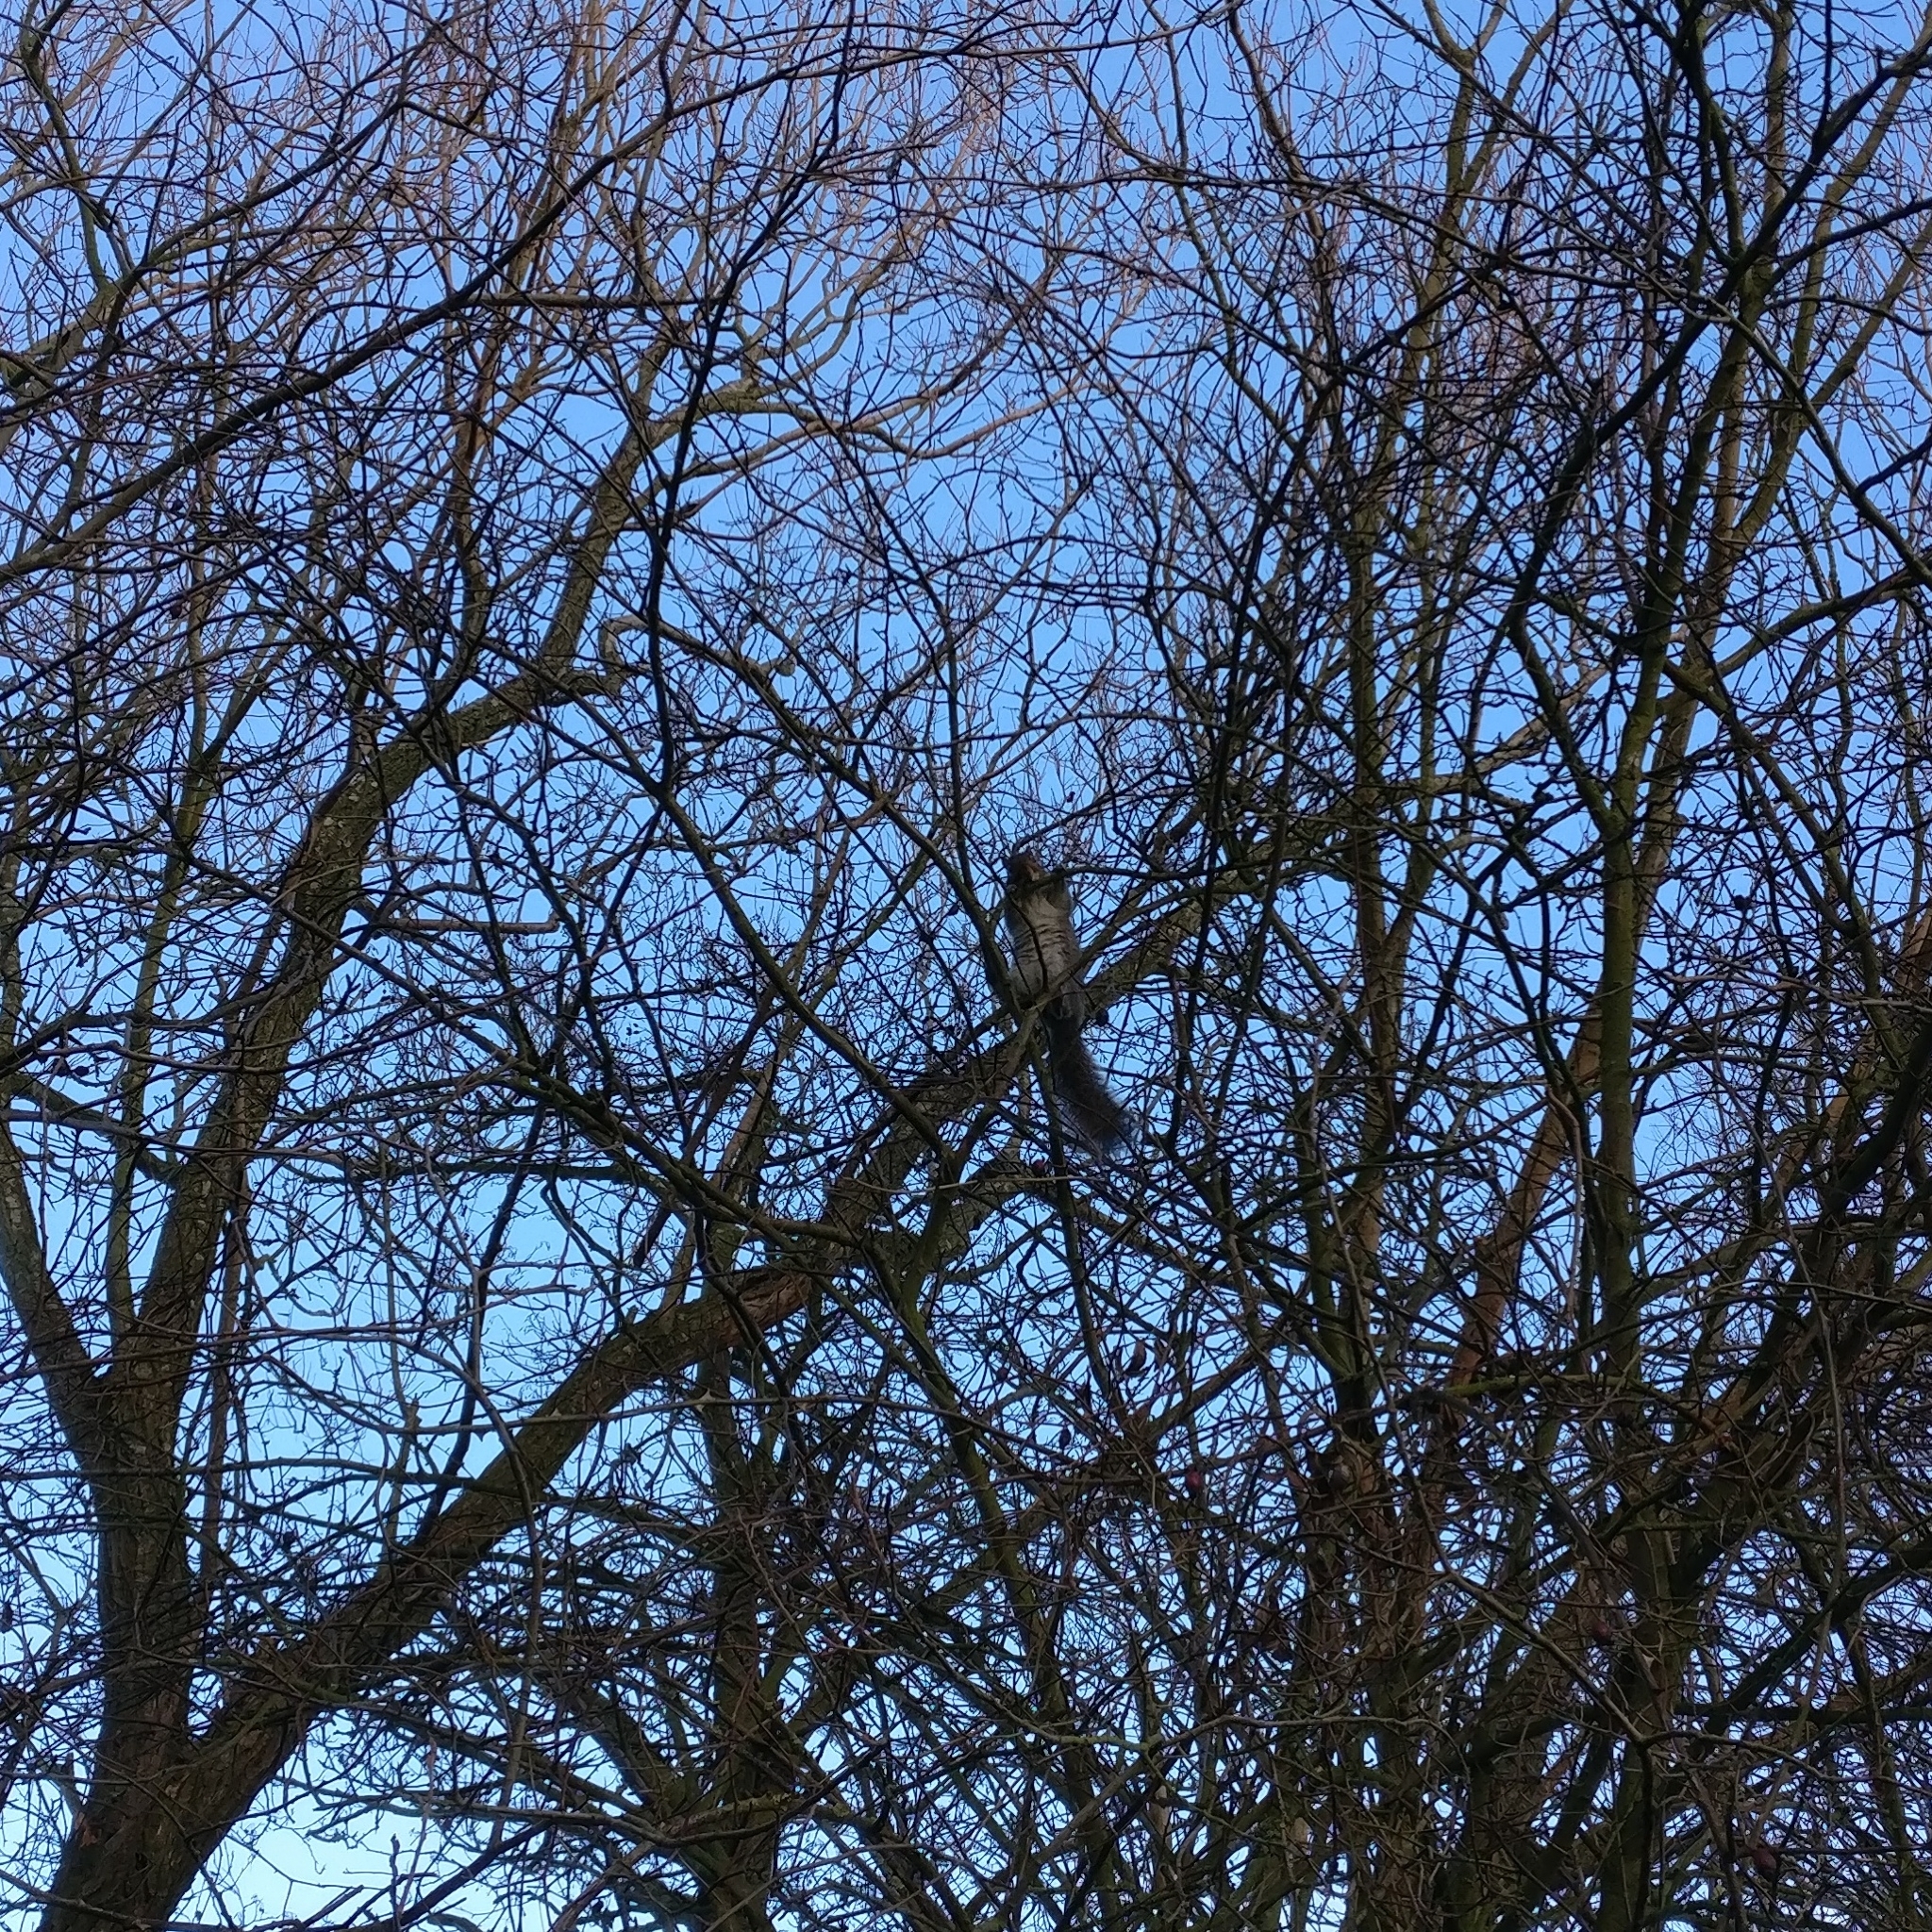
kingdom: Animalia
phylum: Chordata
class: Mammalia
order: Rodentia
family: Sciuridae
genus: Sciurus
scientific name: Sciurus carolinensis
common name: Eastern gray squirrel
